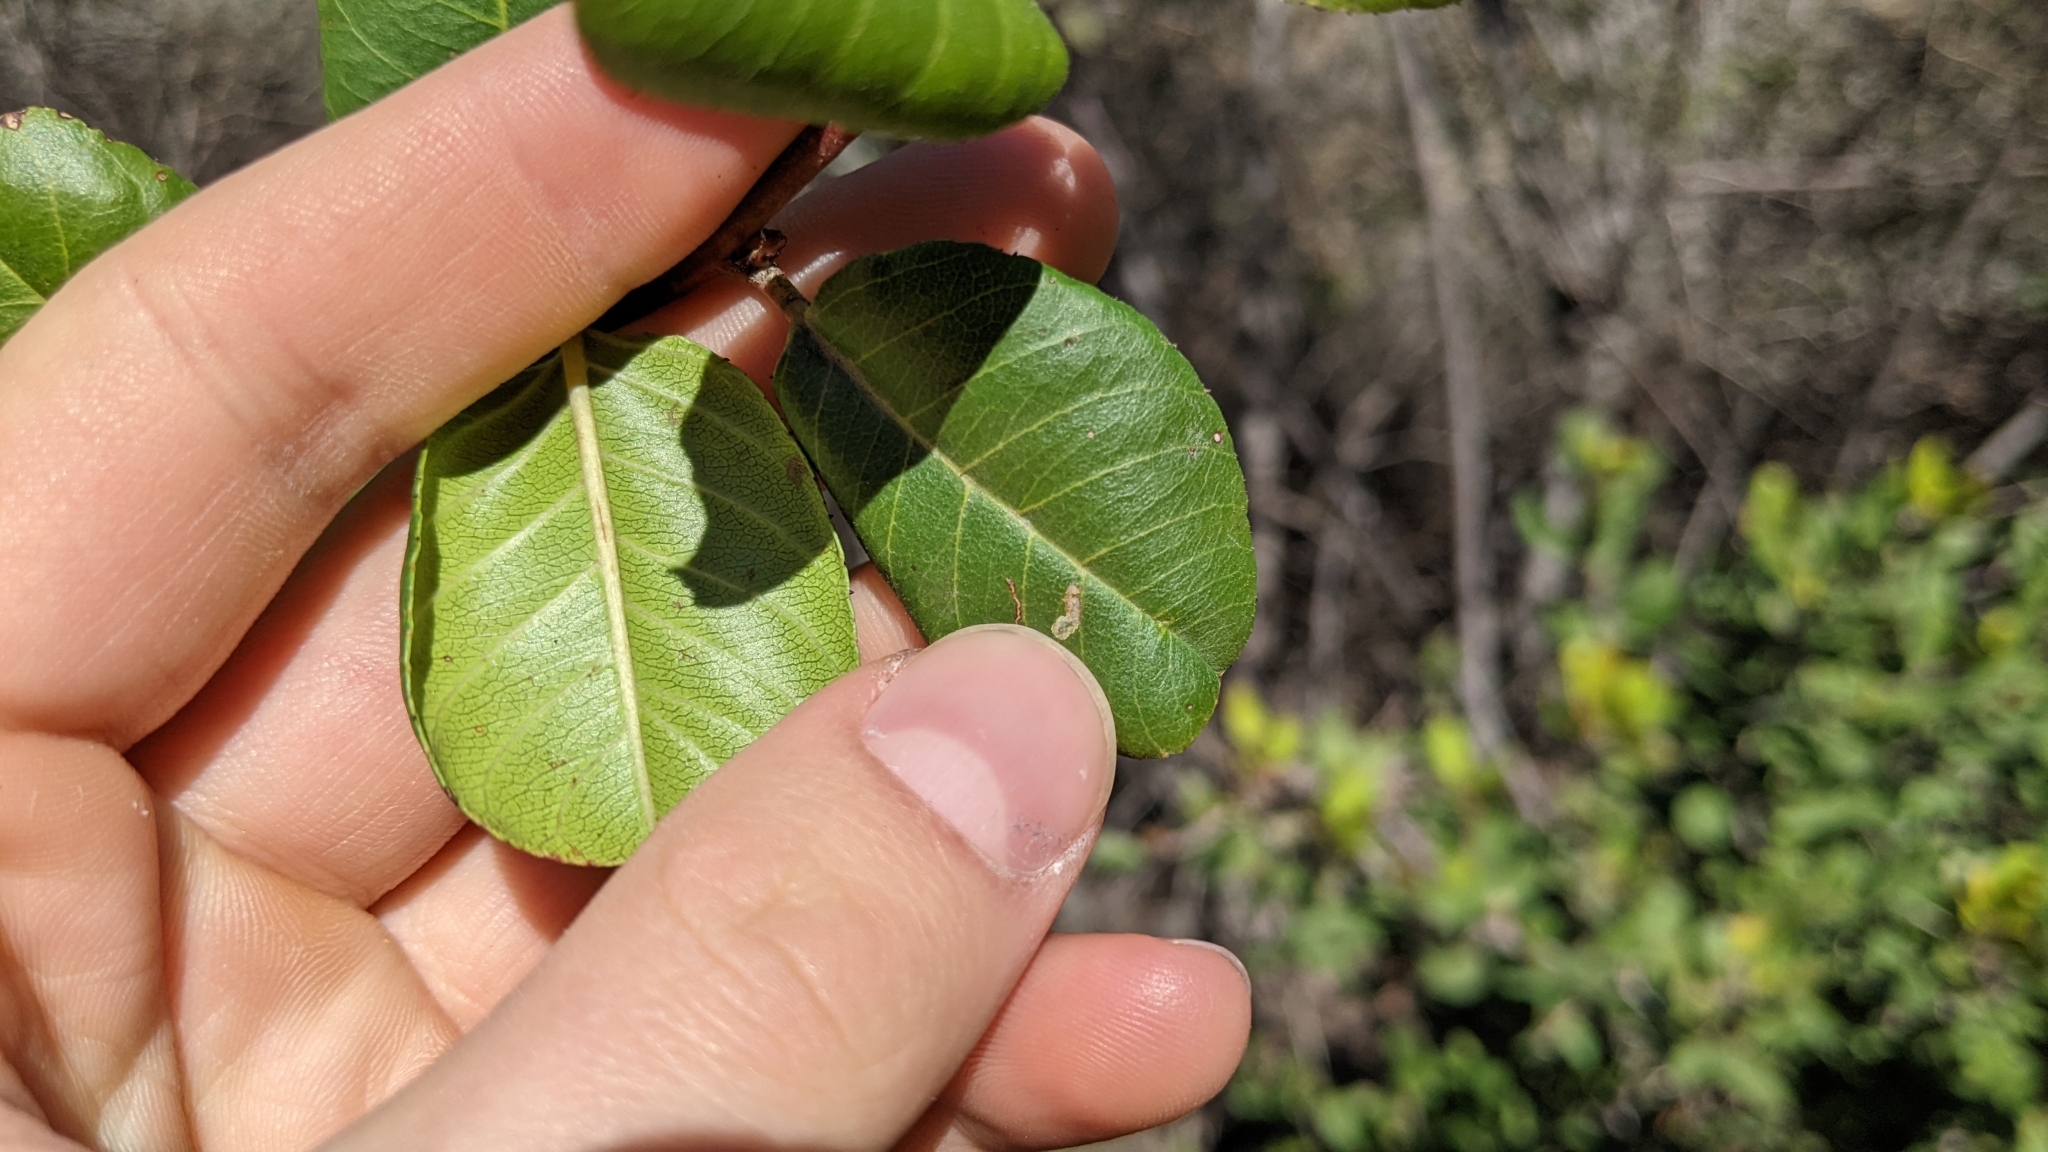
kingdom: Plantae
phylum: Tracheophyta
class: Magnoliopsida
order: Rosales
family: Rhamnaceae
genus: Endotropis
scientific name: Endotropis crocea
